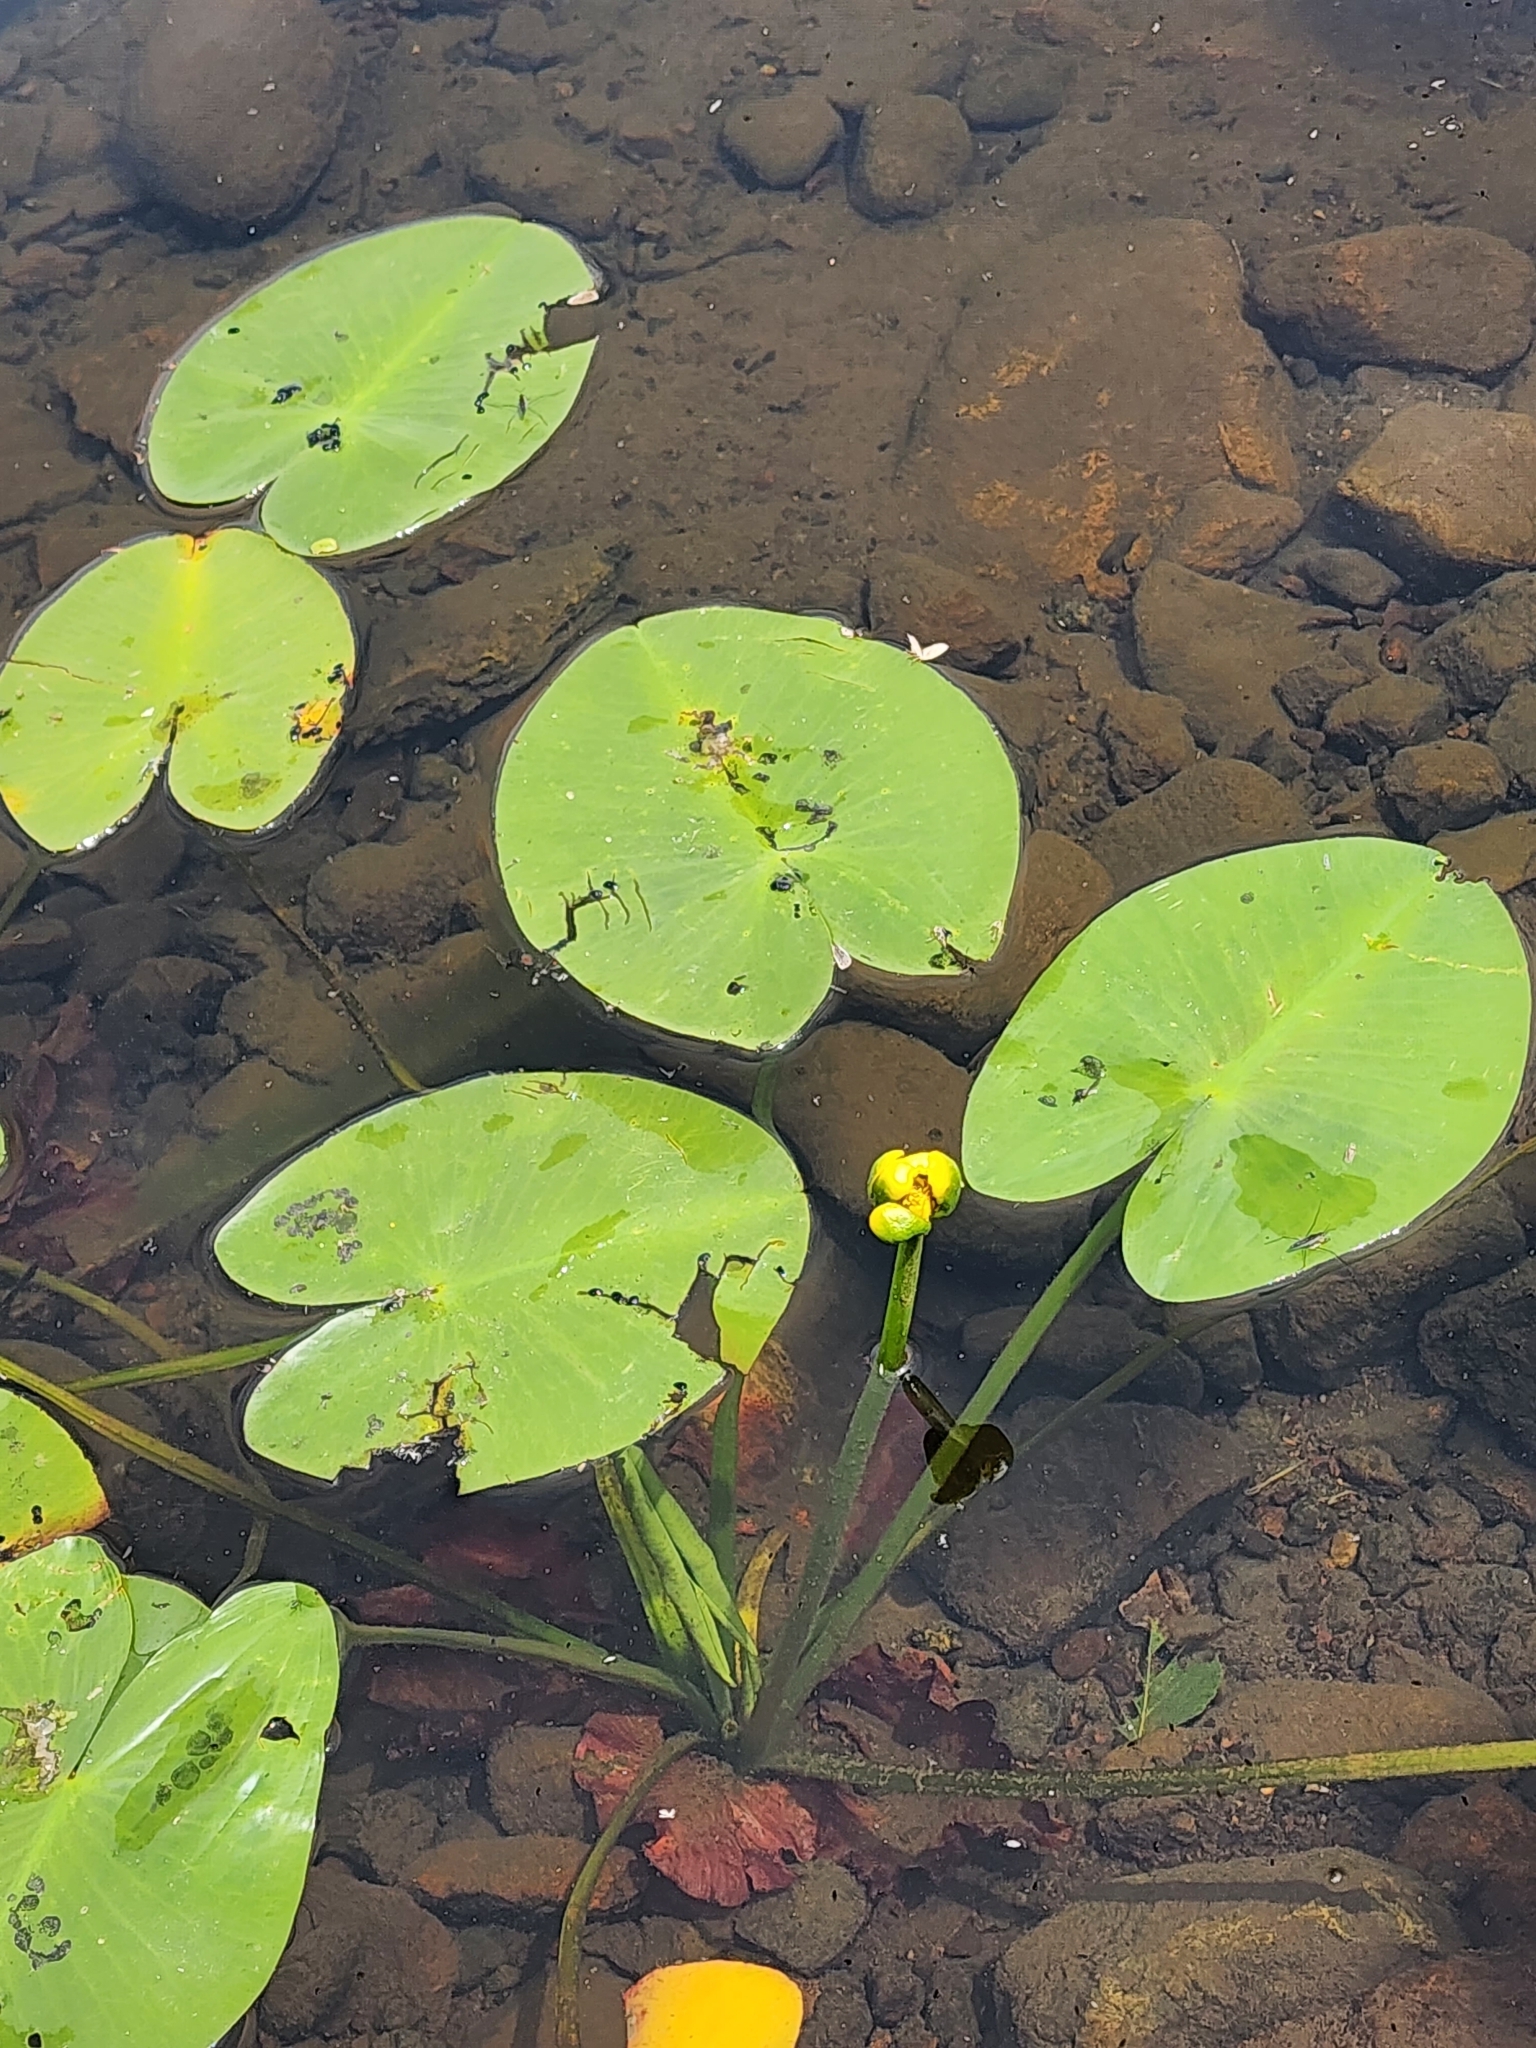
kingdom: Plantae
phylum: Tracheophyta
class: Magnoliopsida
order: Nymphaeales
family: Nymphaeaceae
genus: Nuphar
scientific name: Nuphar variegata
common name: Beaver-root
